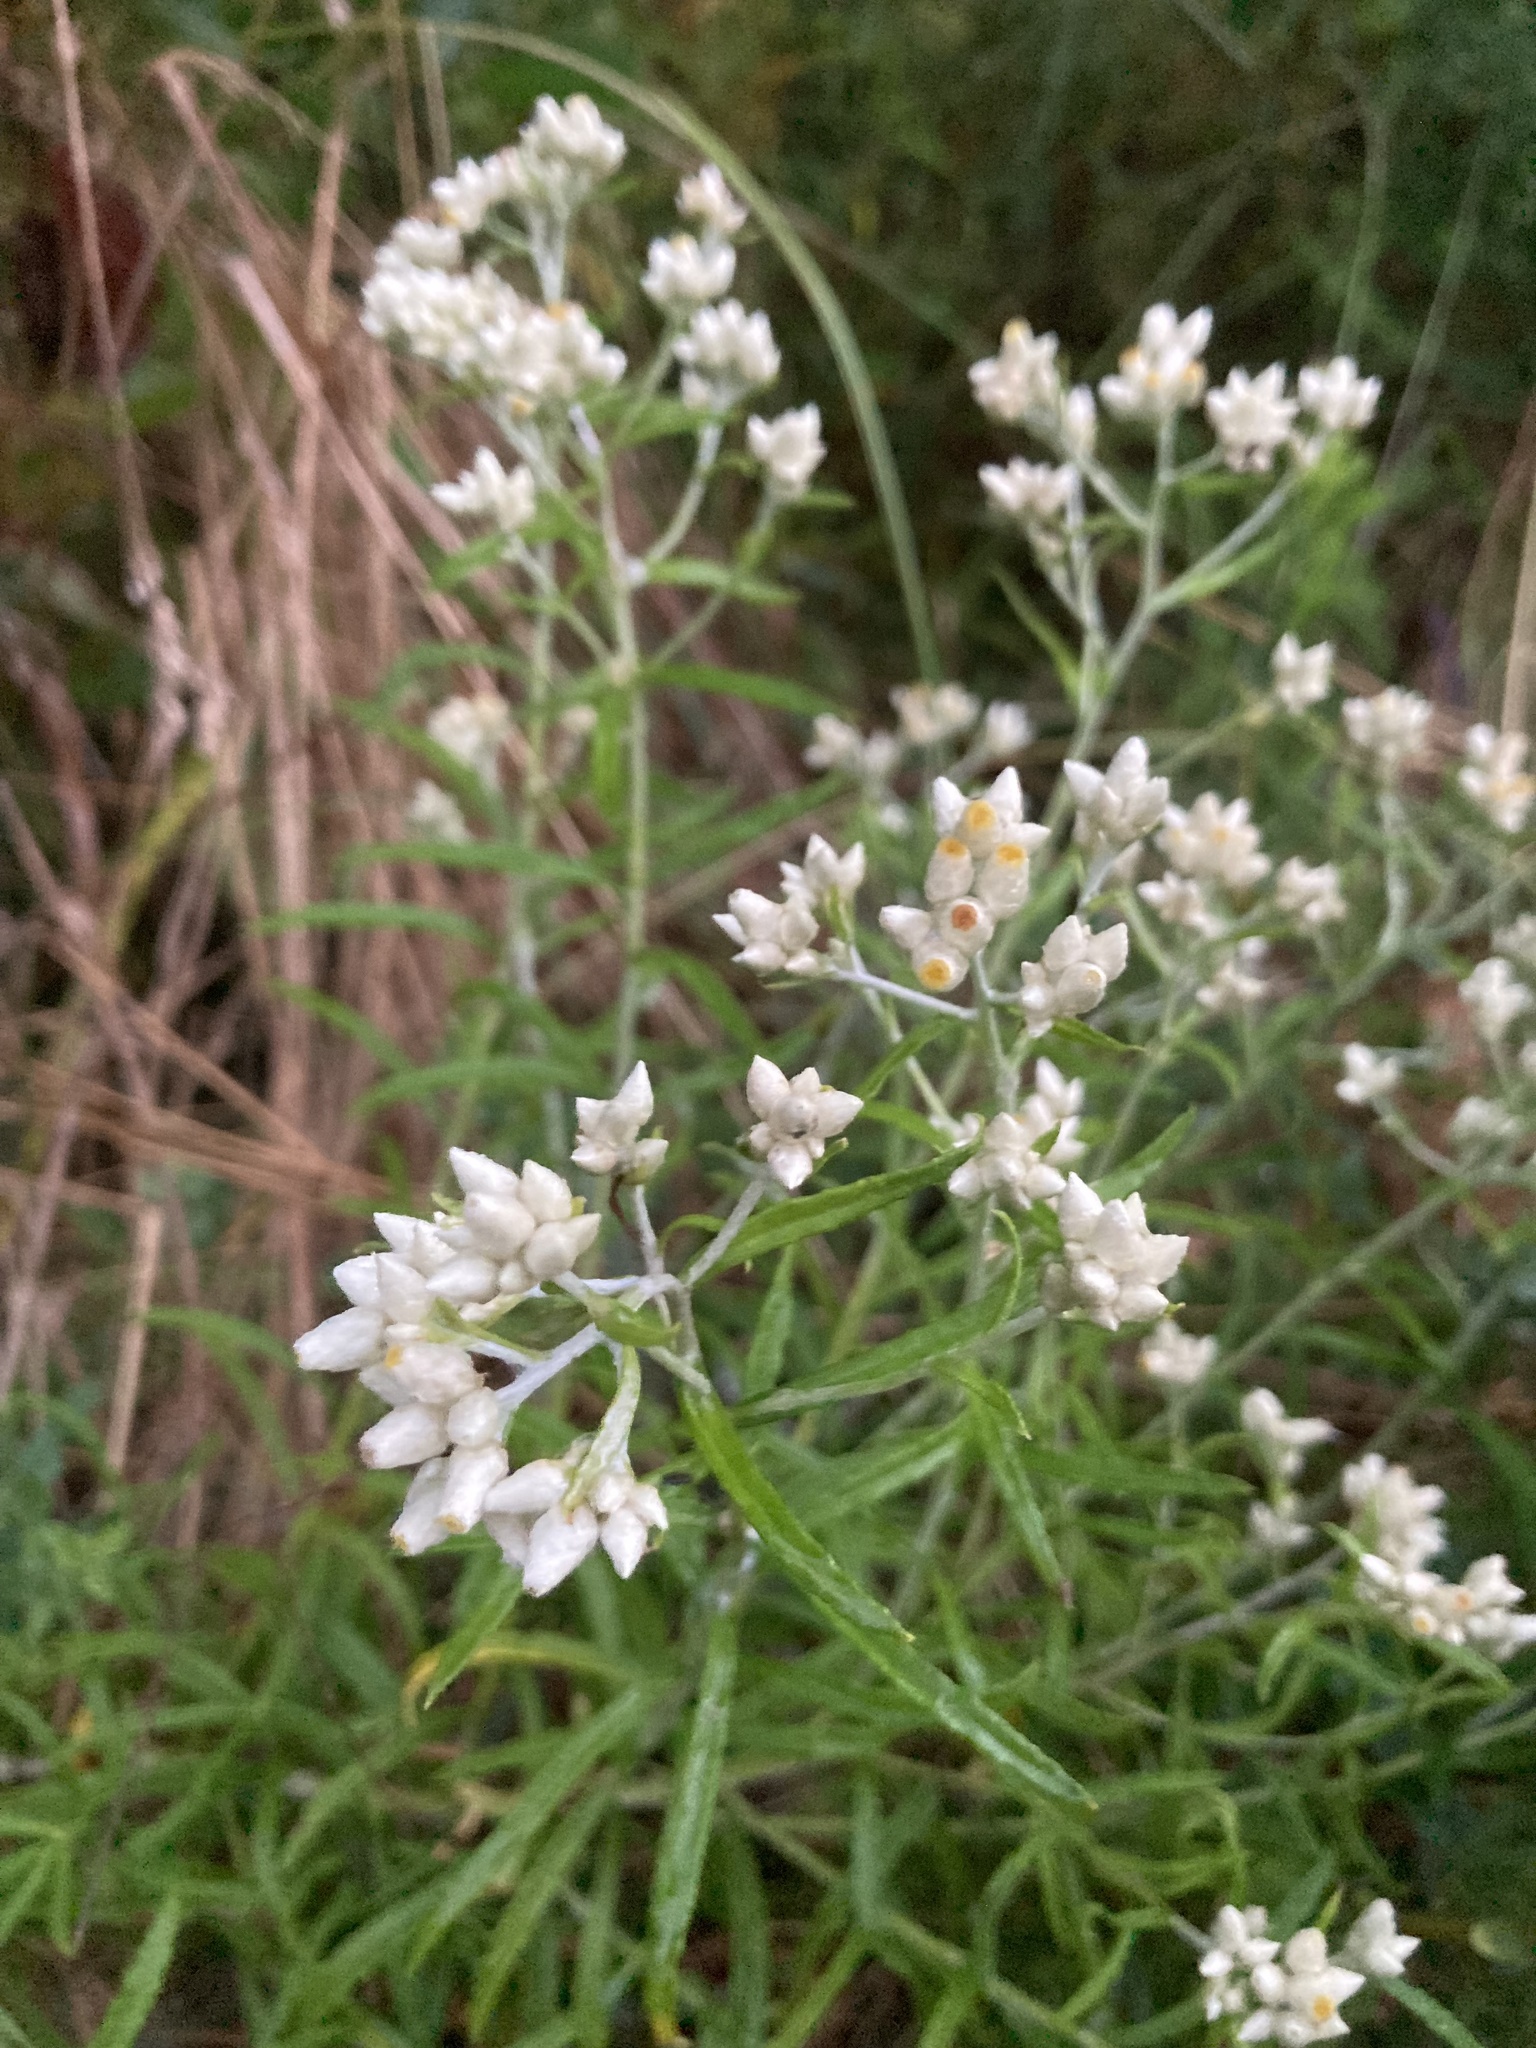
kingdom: Plantae
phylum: Tracheophyta
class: Magnoliopsida
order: Asterales
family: Asteraceae
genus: Pseudognaphalium
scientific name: Pseudognaphalium obtusifolium
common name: Eastern rabbit-tobacco
